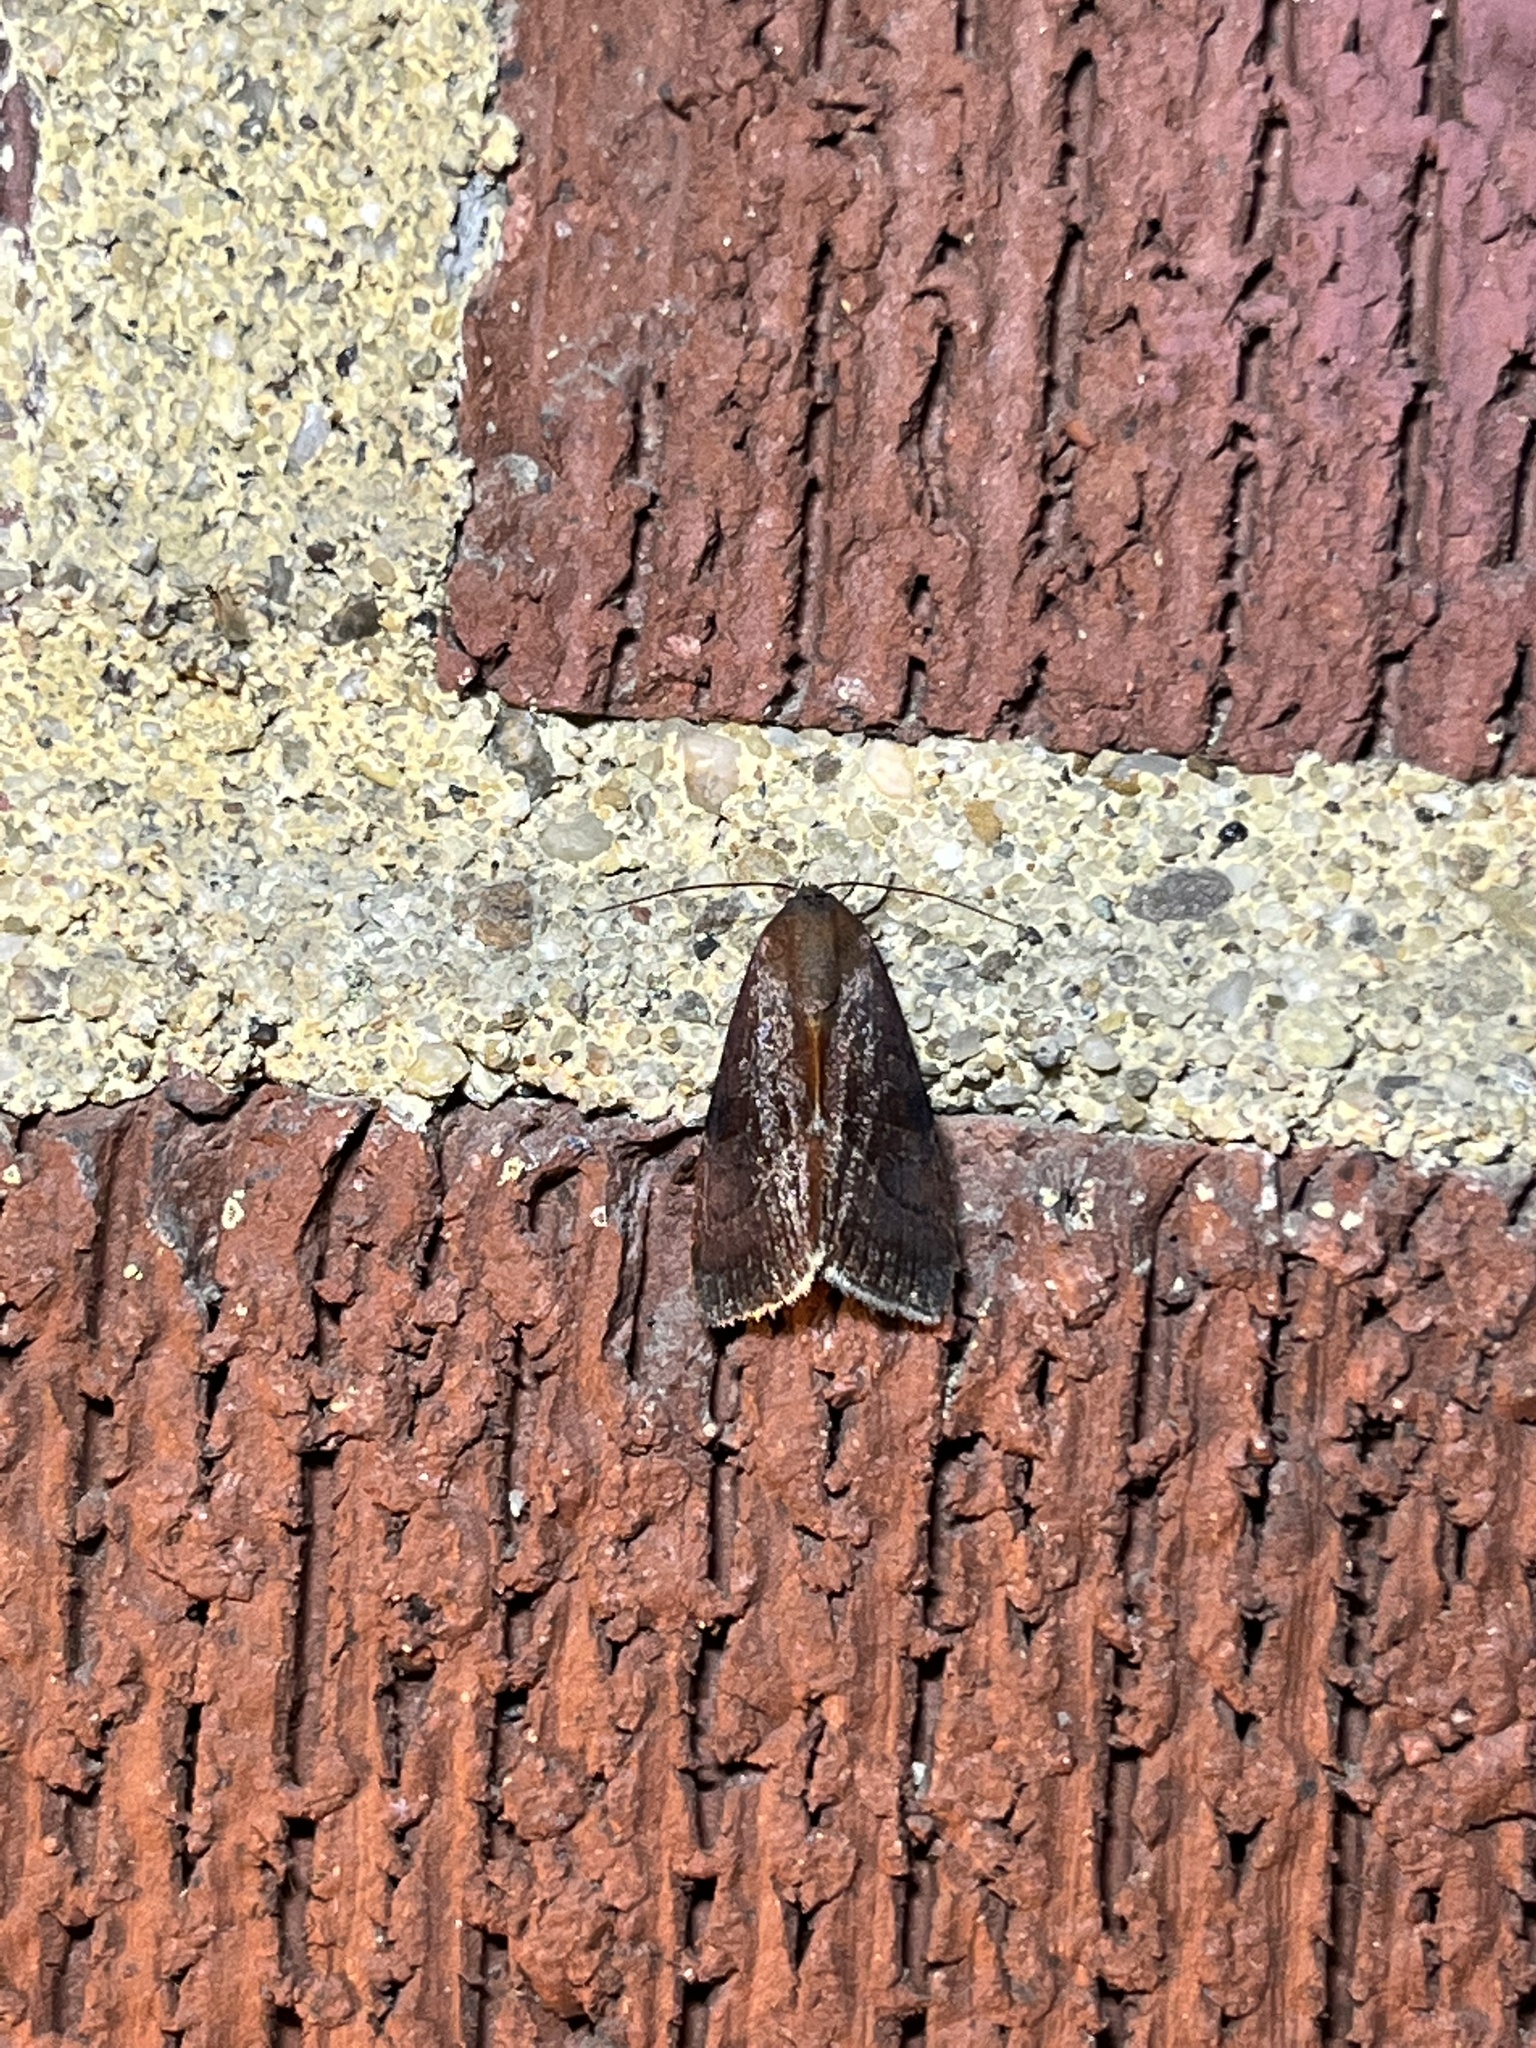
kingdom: Animalia
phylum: Arthropoda
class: Insecta
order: Lepidoptera
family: Noctuidae
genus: Galgula
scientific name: Galgula partita
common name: Wedgeling
